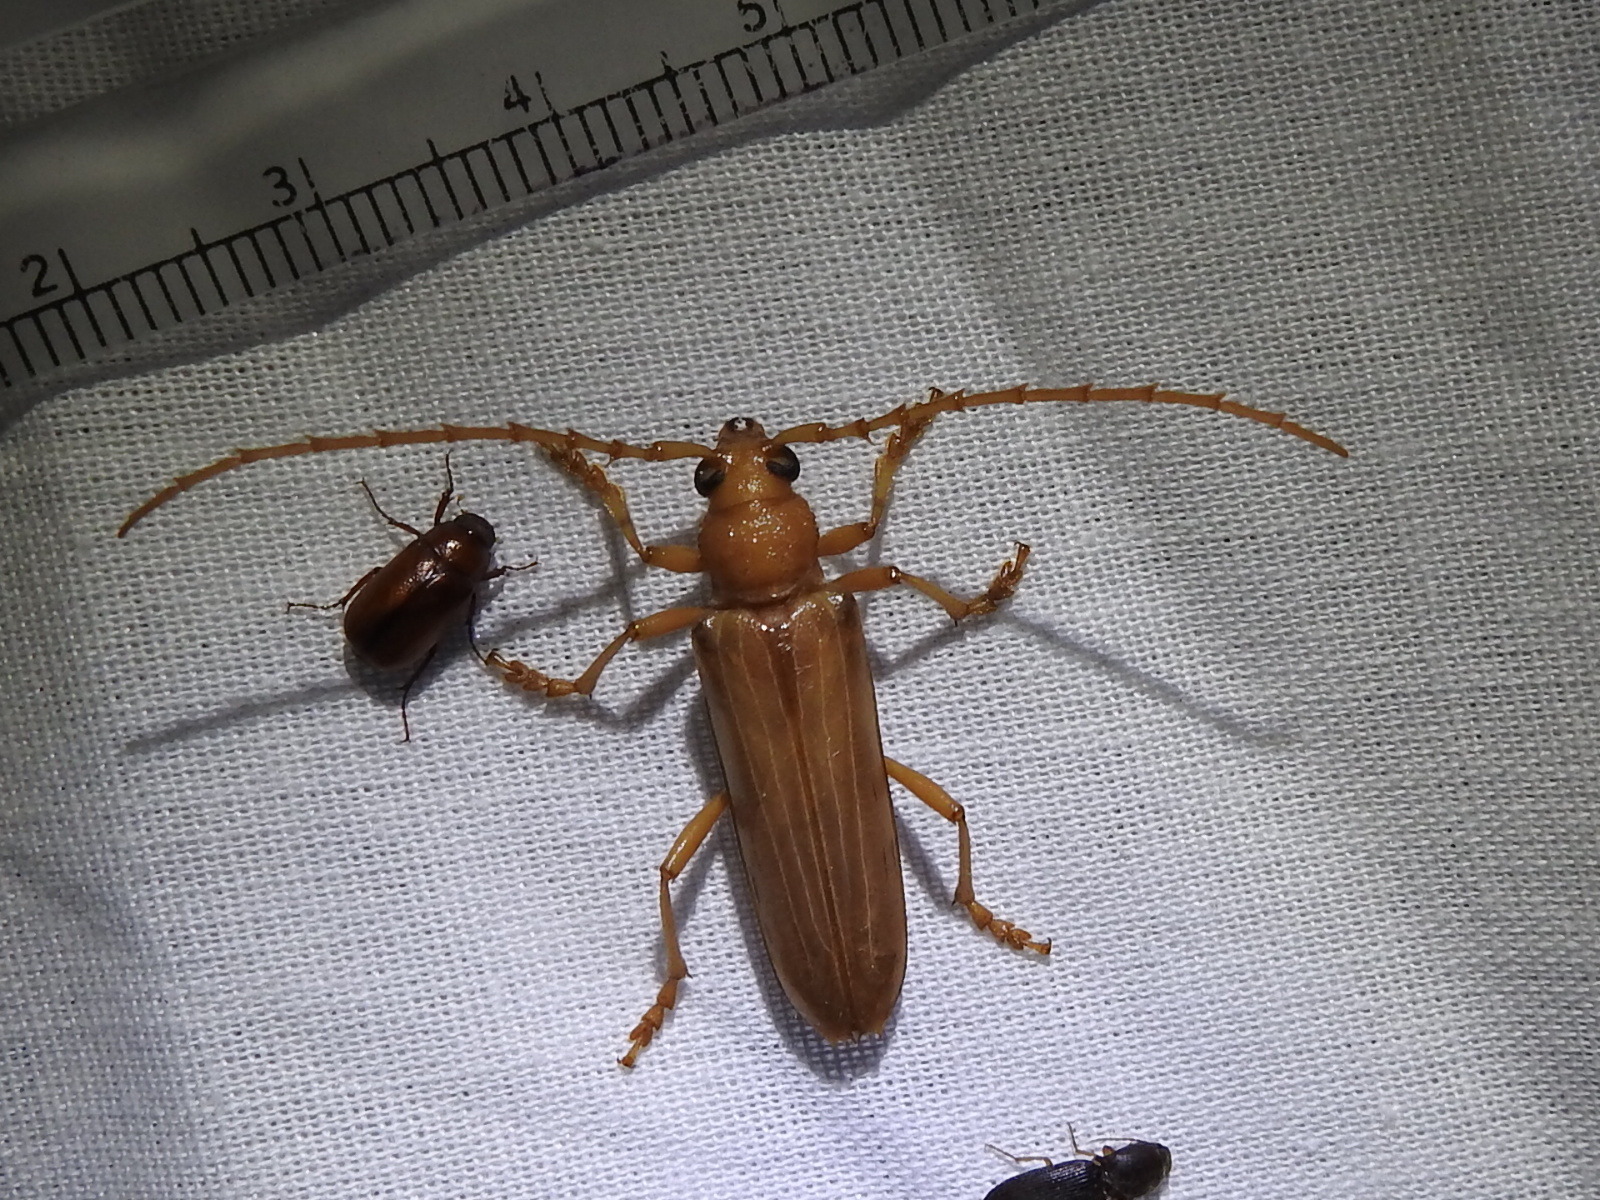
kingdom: Animalia
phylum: Arthropoda
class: Insecta
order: Coleoptera
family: Cerambycidae
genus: Atylostagma
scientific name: Atylostagma polita
